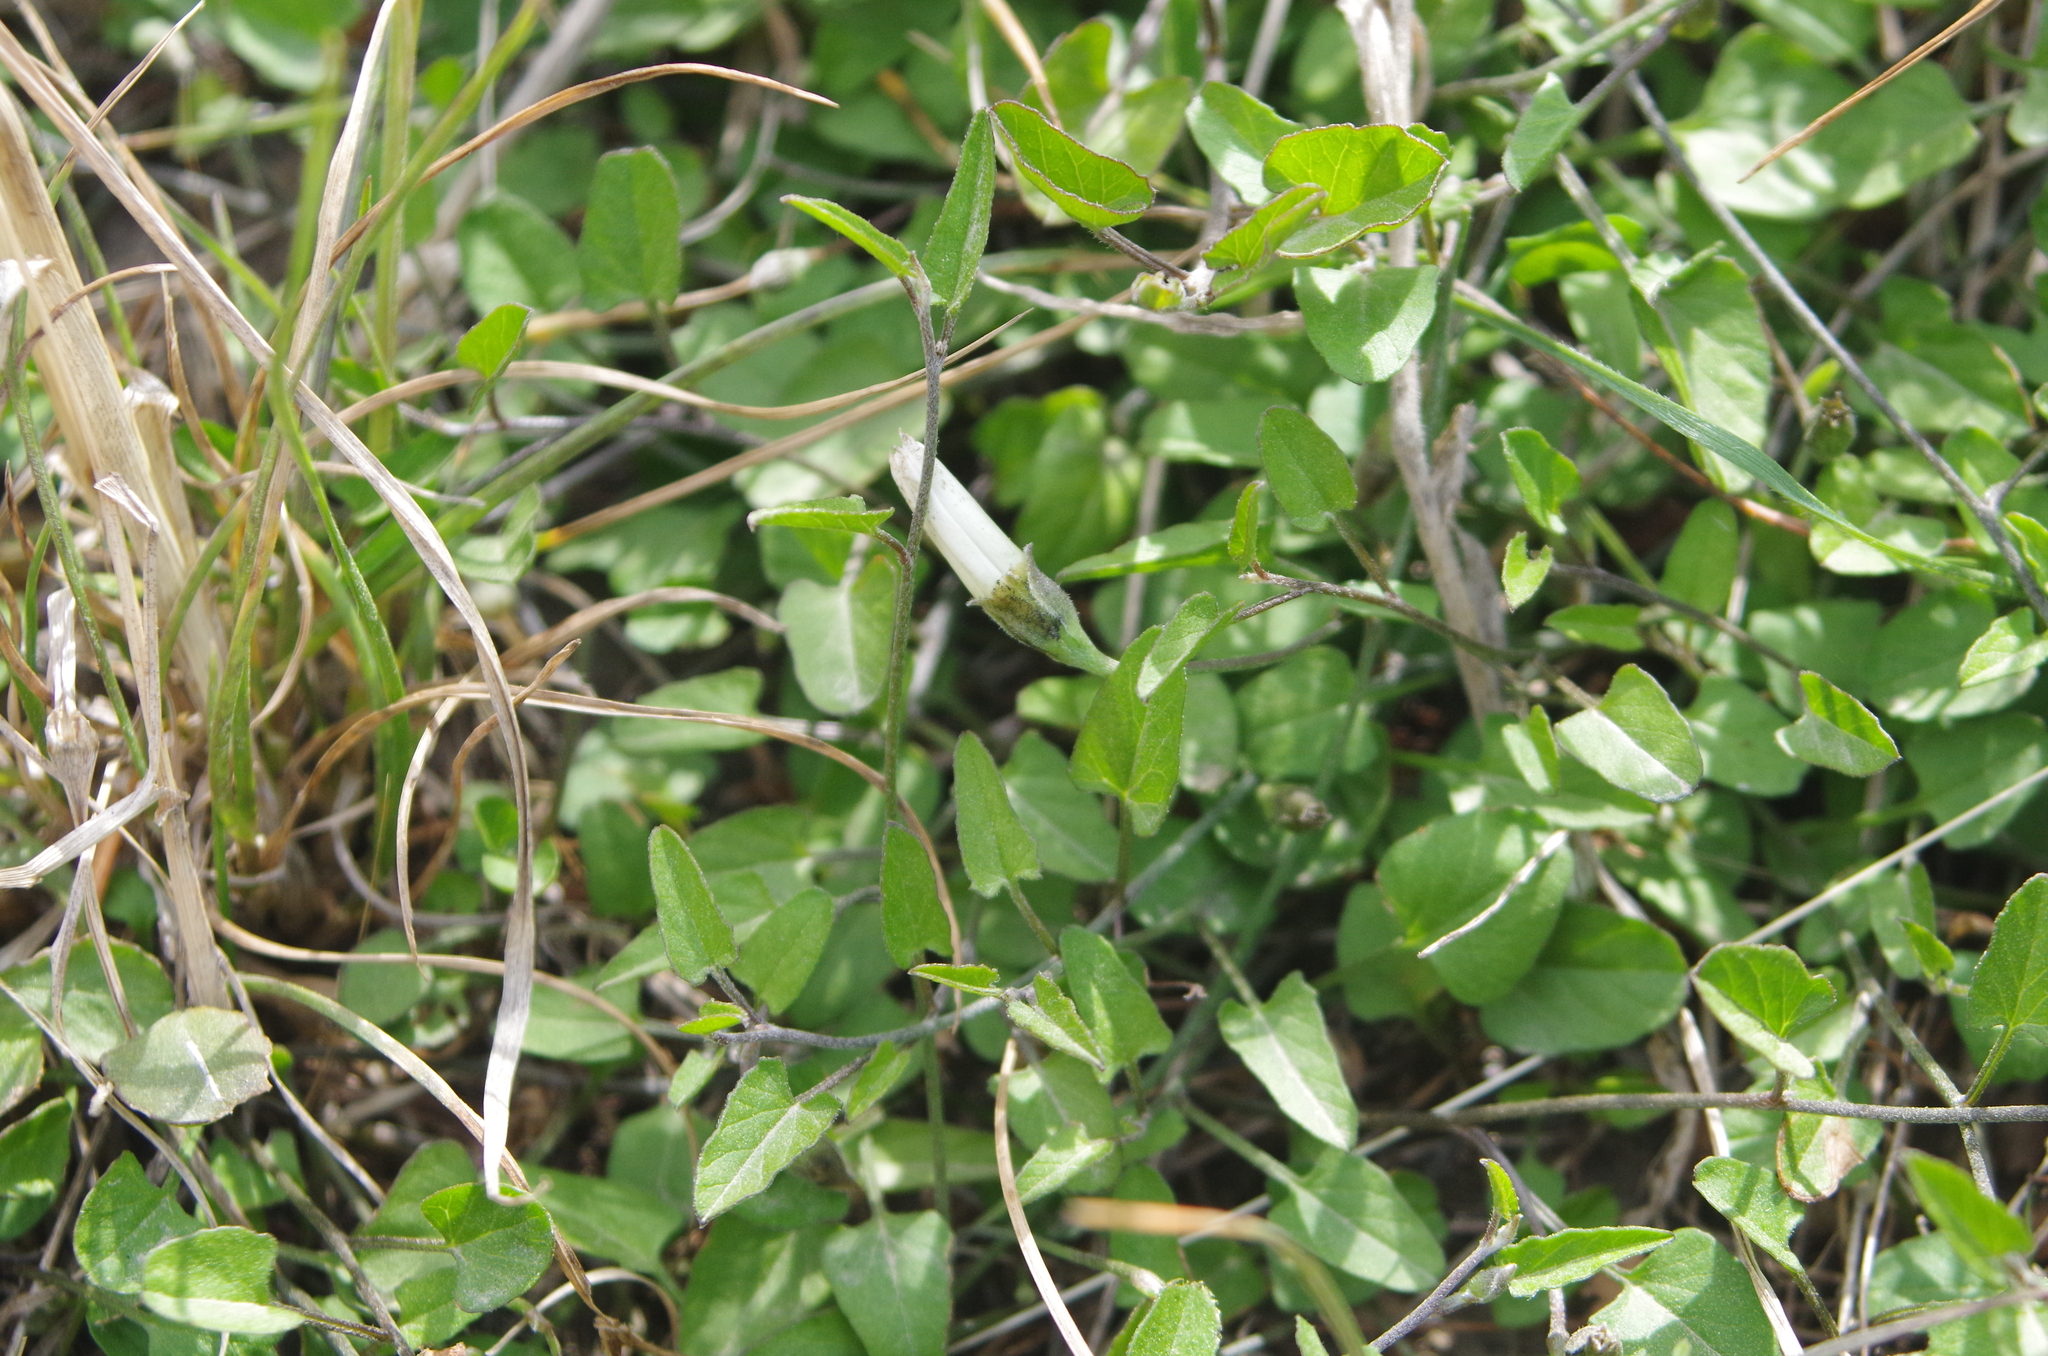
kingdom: Plantae
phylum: Tracheophyta
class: Magnoliopsida
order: Solanales
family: Convolvulaceae
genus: Convolvulus
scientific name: Convolvulus waitaha
